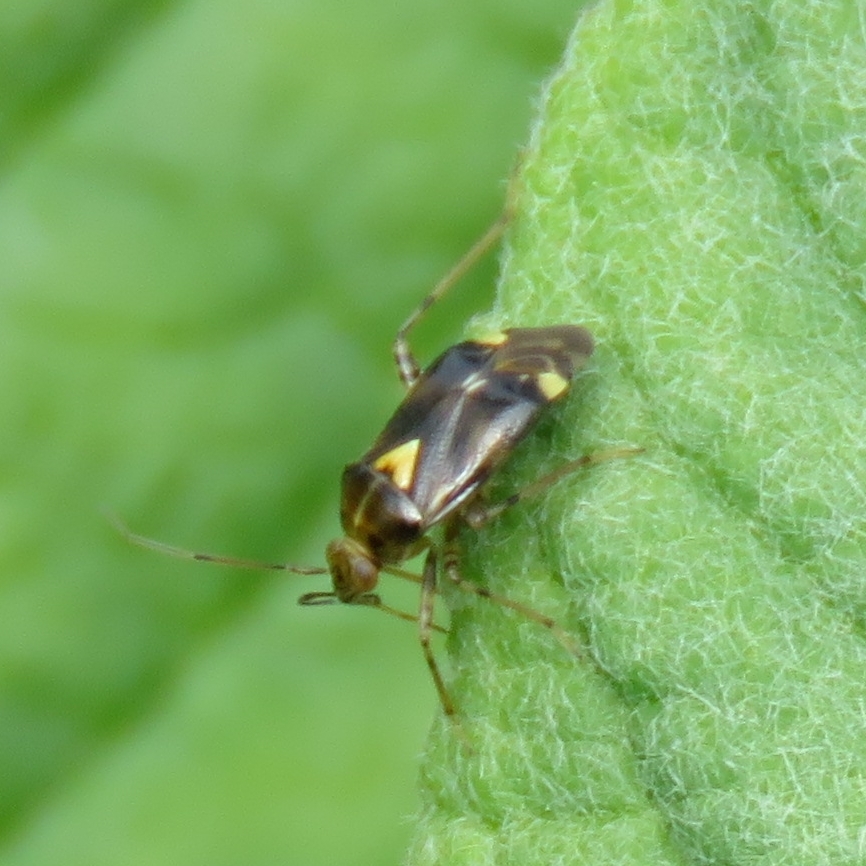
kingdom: Animalia
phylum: Arthropoda
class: Insecta
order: Hemiptera
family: Miridae
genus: Liocoris
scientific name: Liocoris tripustulatus
